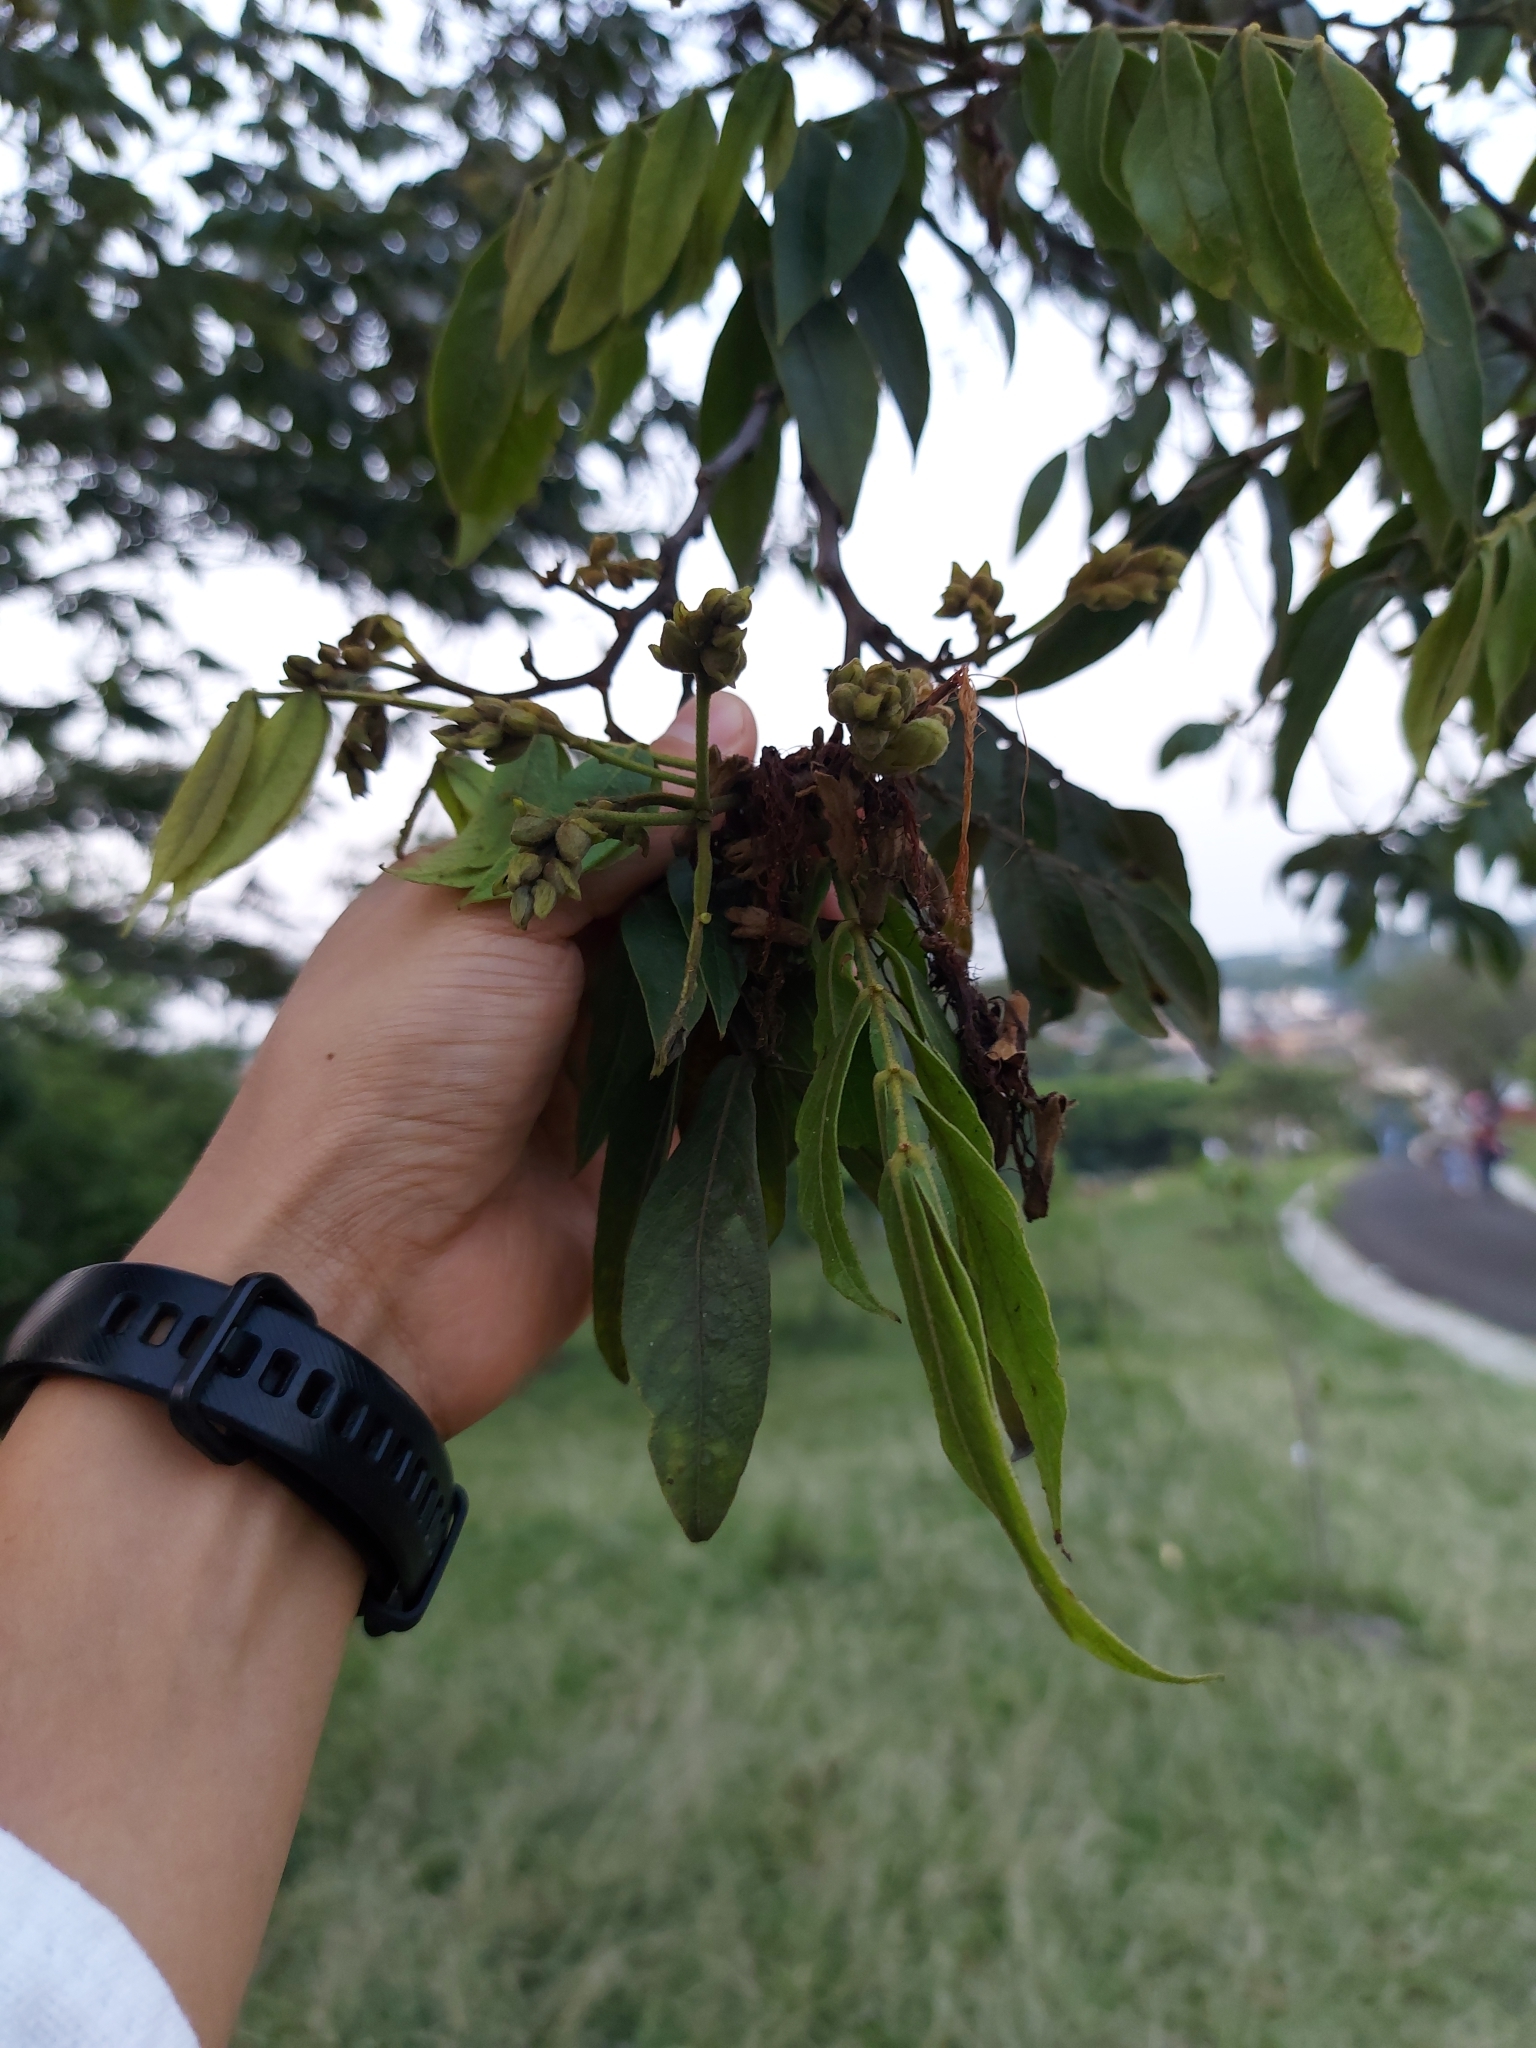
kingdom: Plantae
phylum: Tracheophyta
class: Magnoliopsida
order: Fabales
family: Fabaceae
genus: Inga
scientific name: Inga vera
